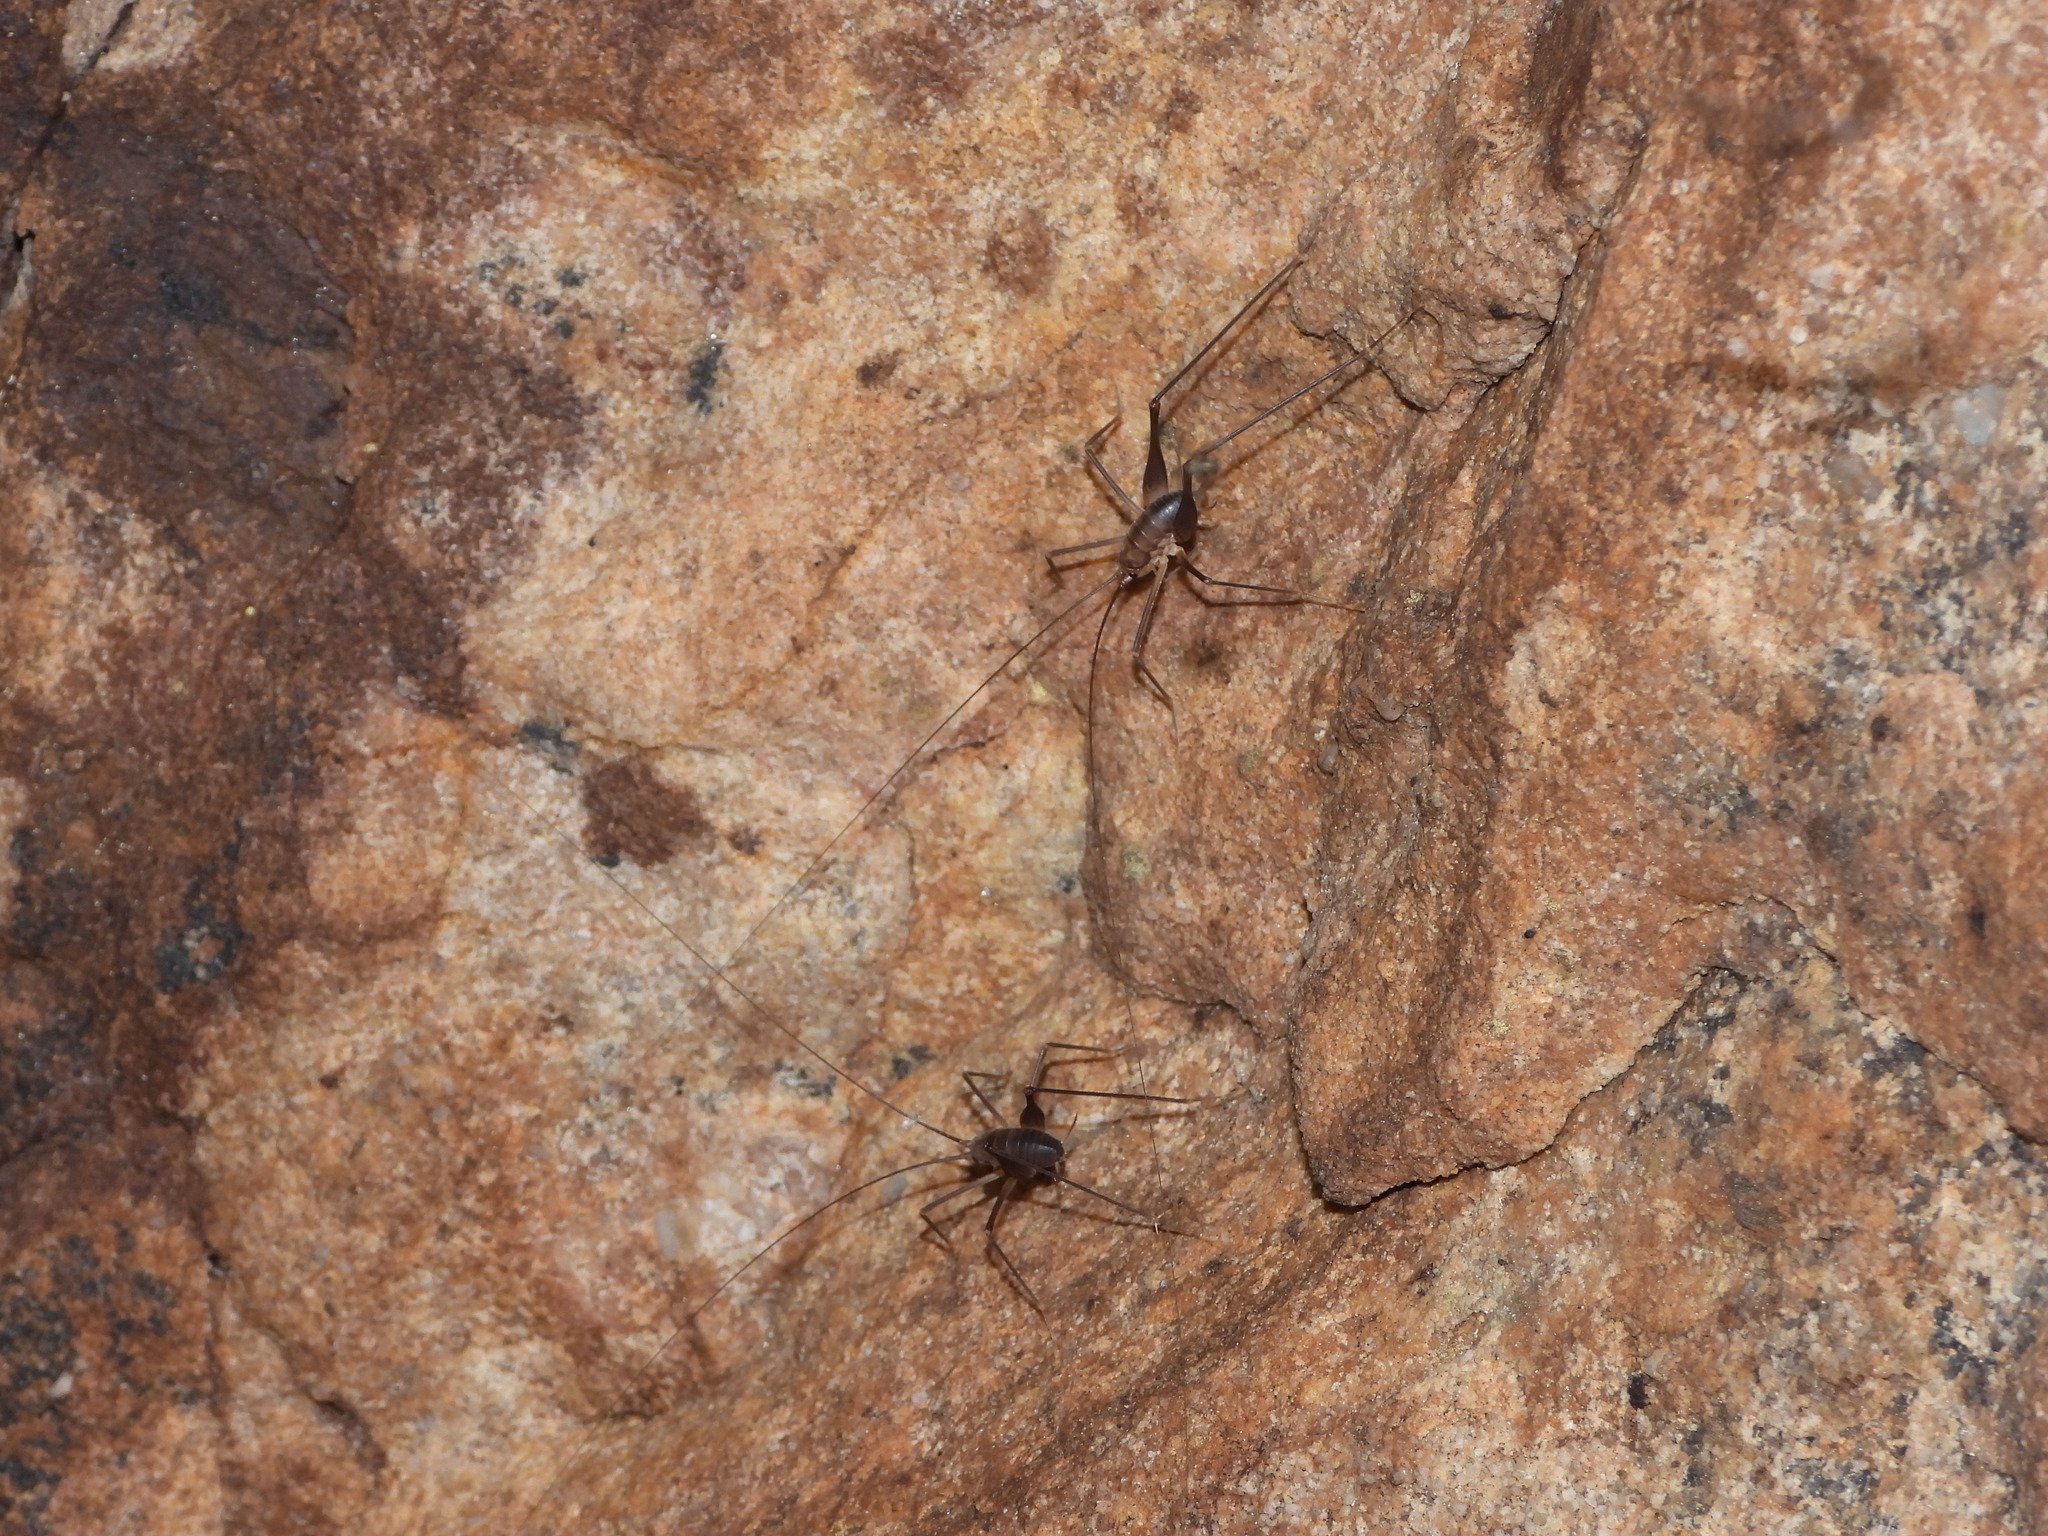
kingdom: Animalia
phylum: Arthropoda
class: Insecta
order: Orthoptera
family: Rhaphidophoridae
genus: Euhadenoecus
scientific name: Euhadenoecus puteanus
